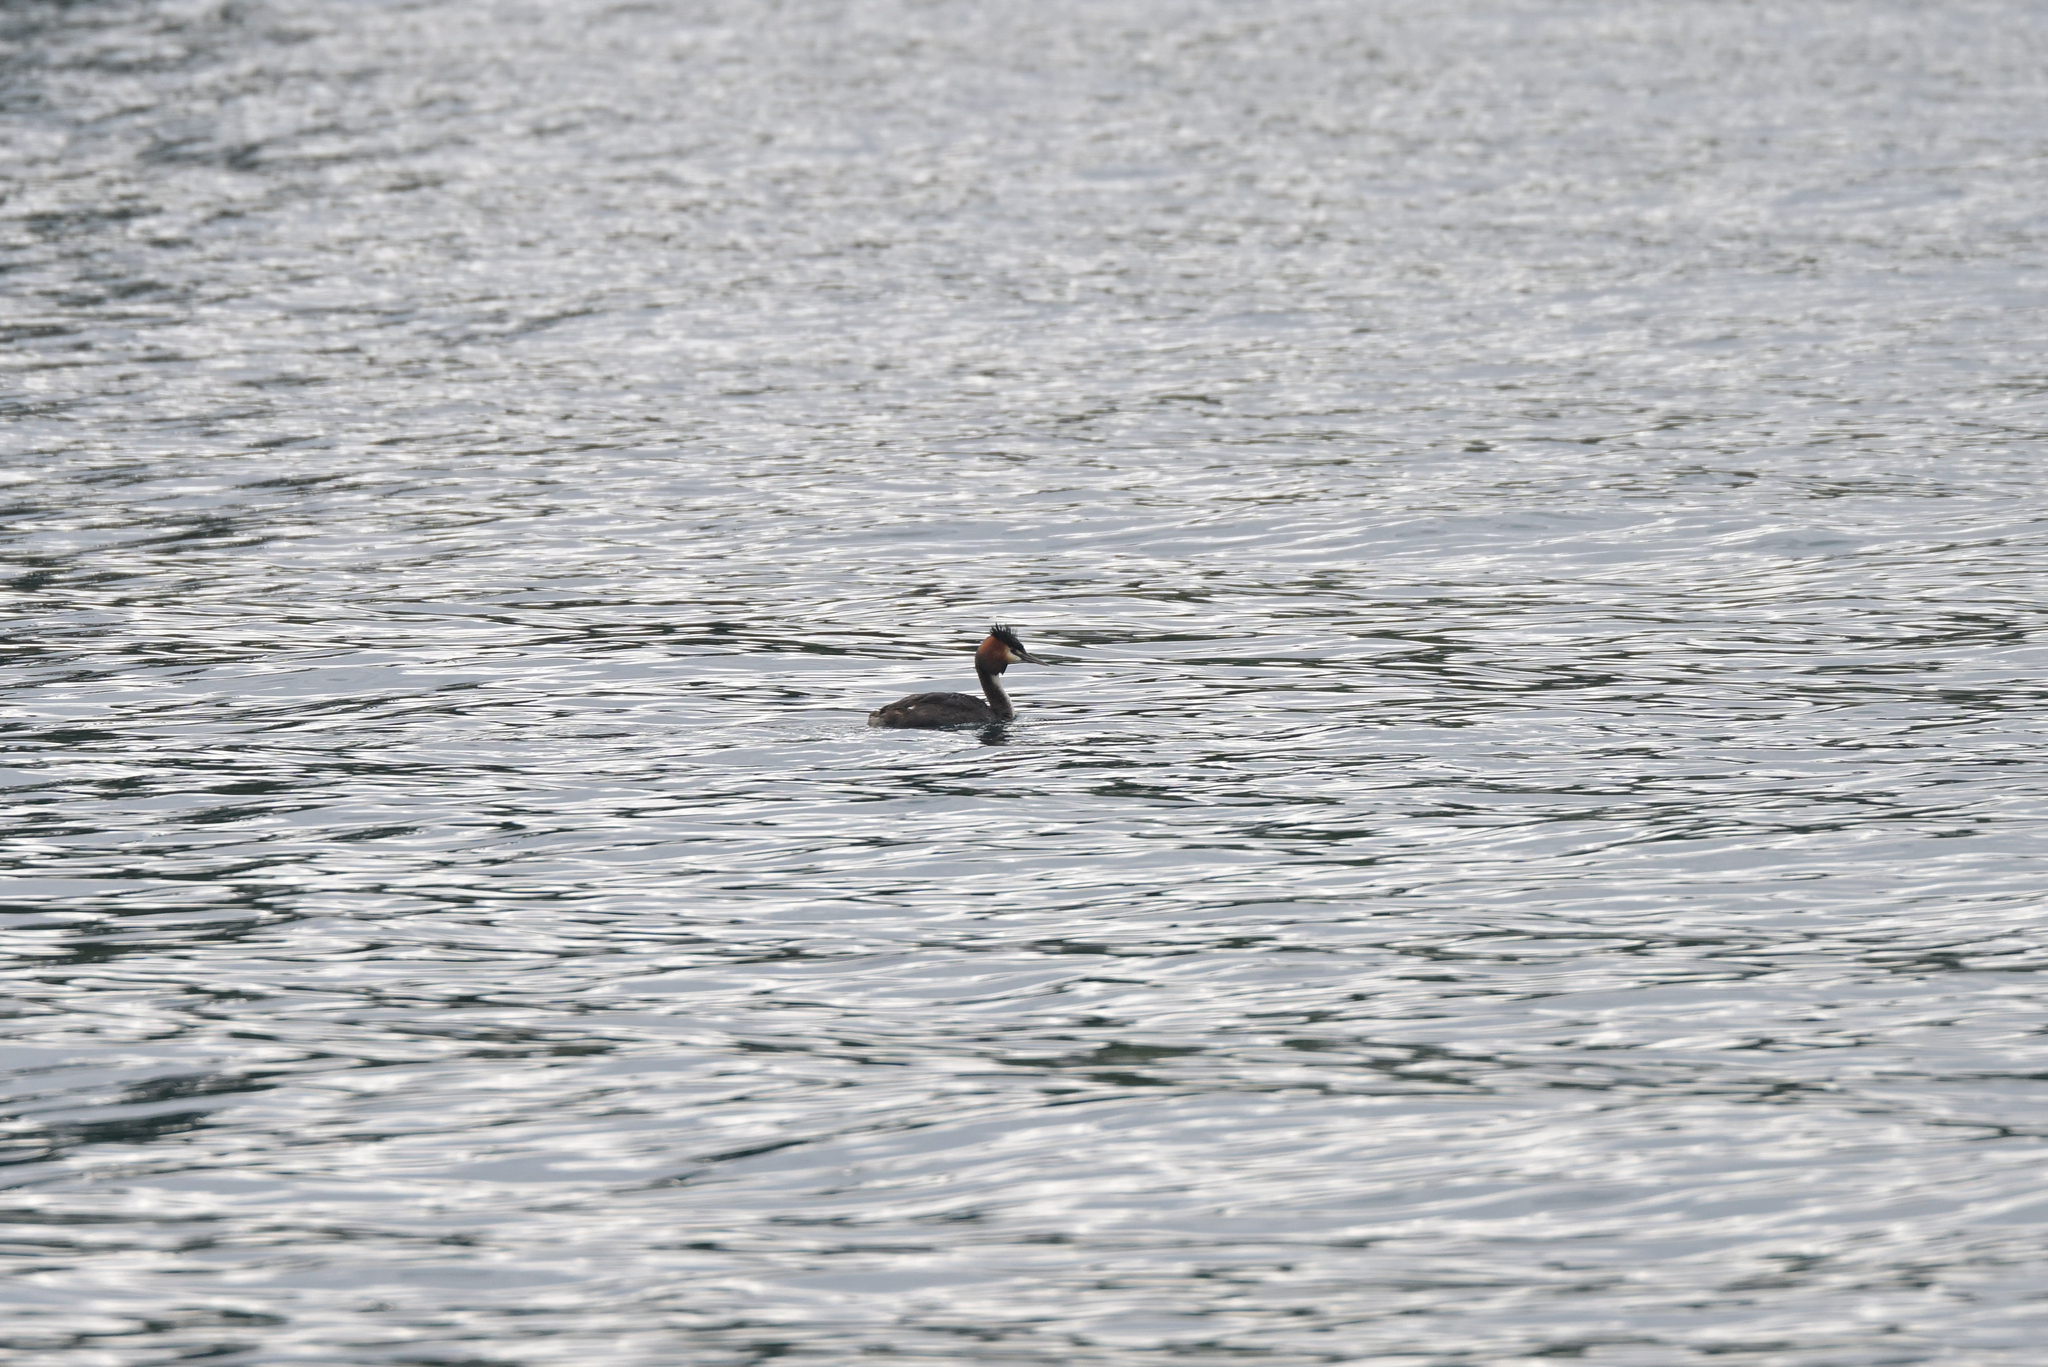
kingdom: Animalia
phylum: Chordata
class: Aves
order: Podicipediformes
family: Podicipedidae
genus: Podiceps
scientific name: Podiceps cristatus
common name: Great crested grebe
